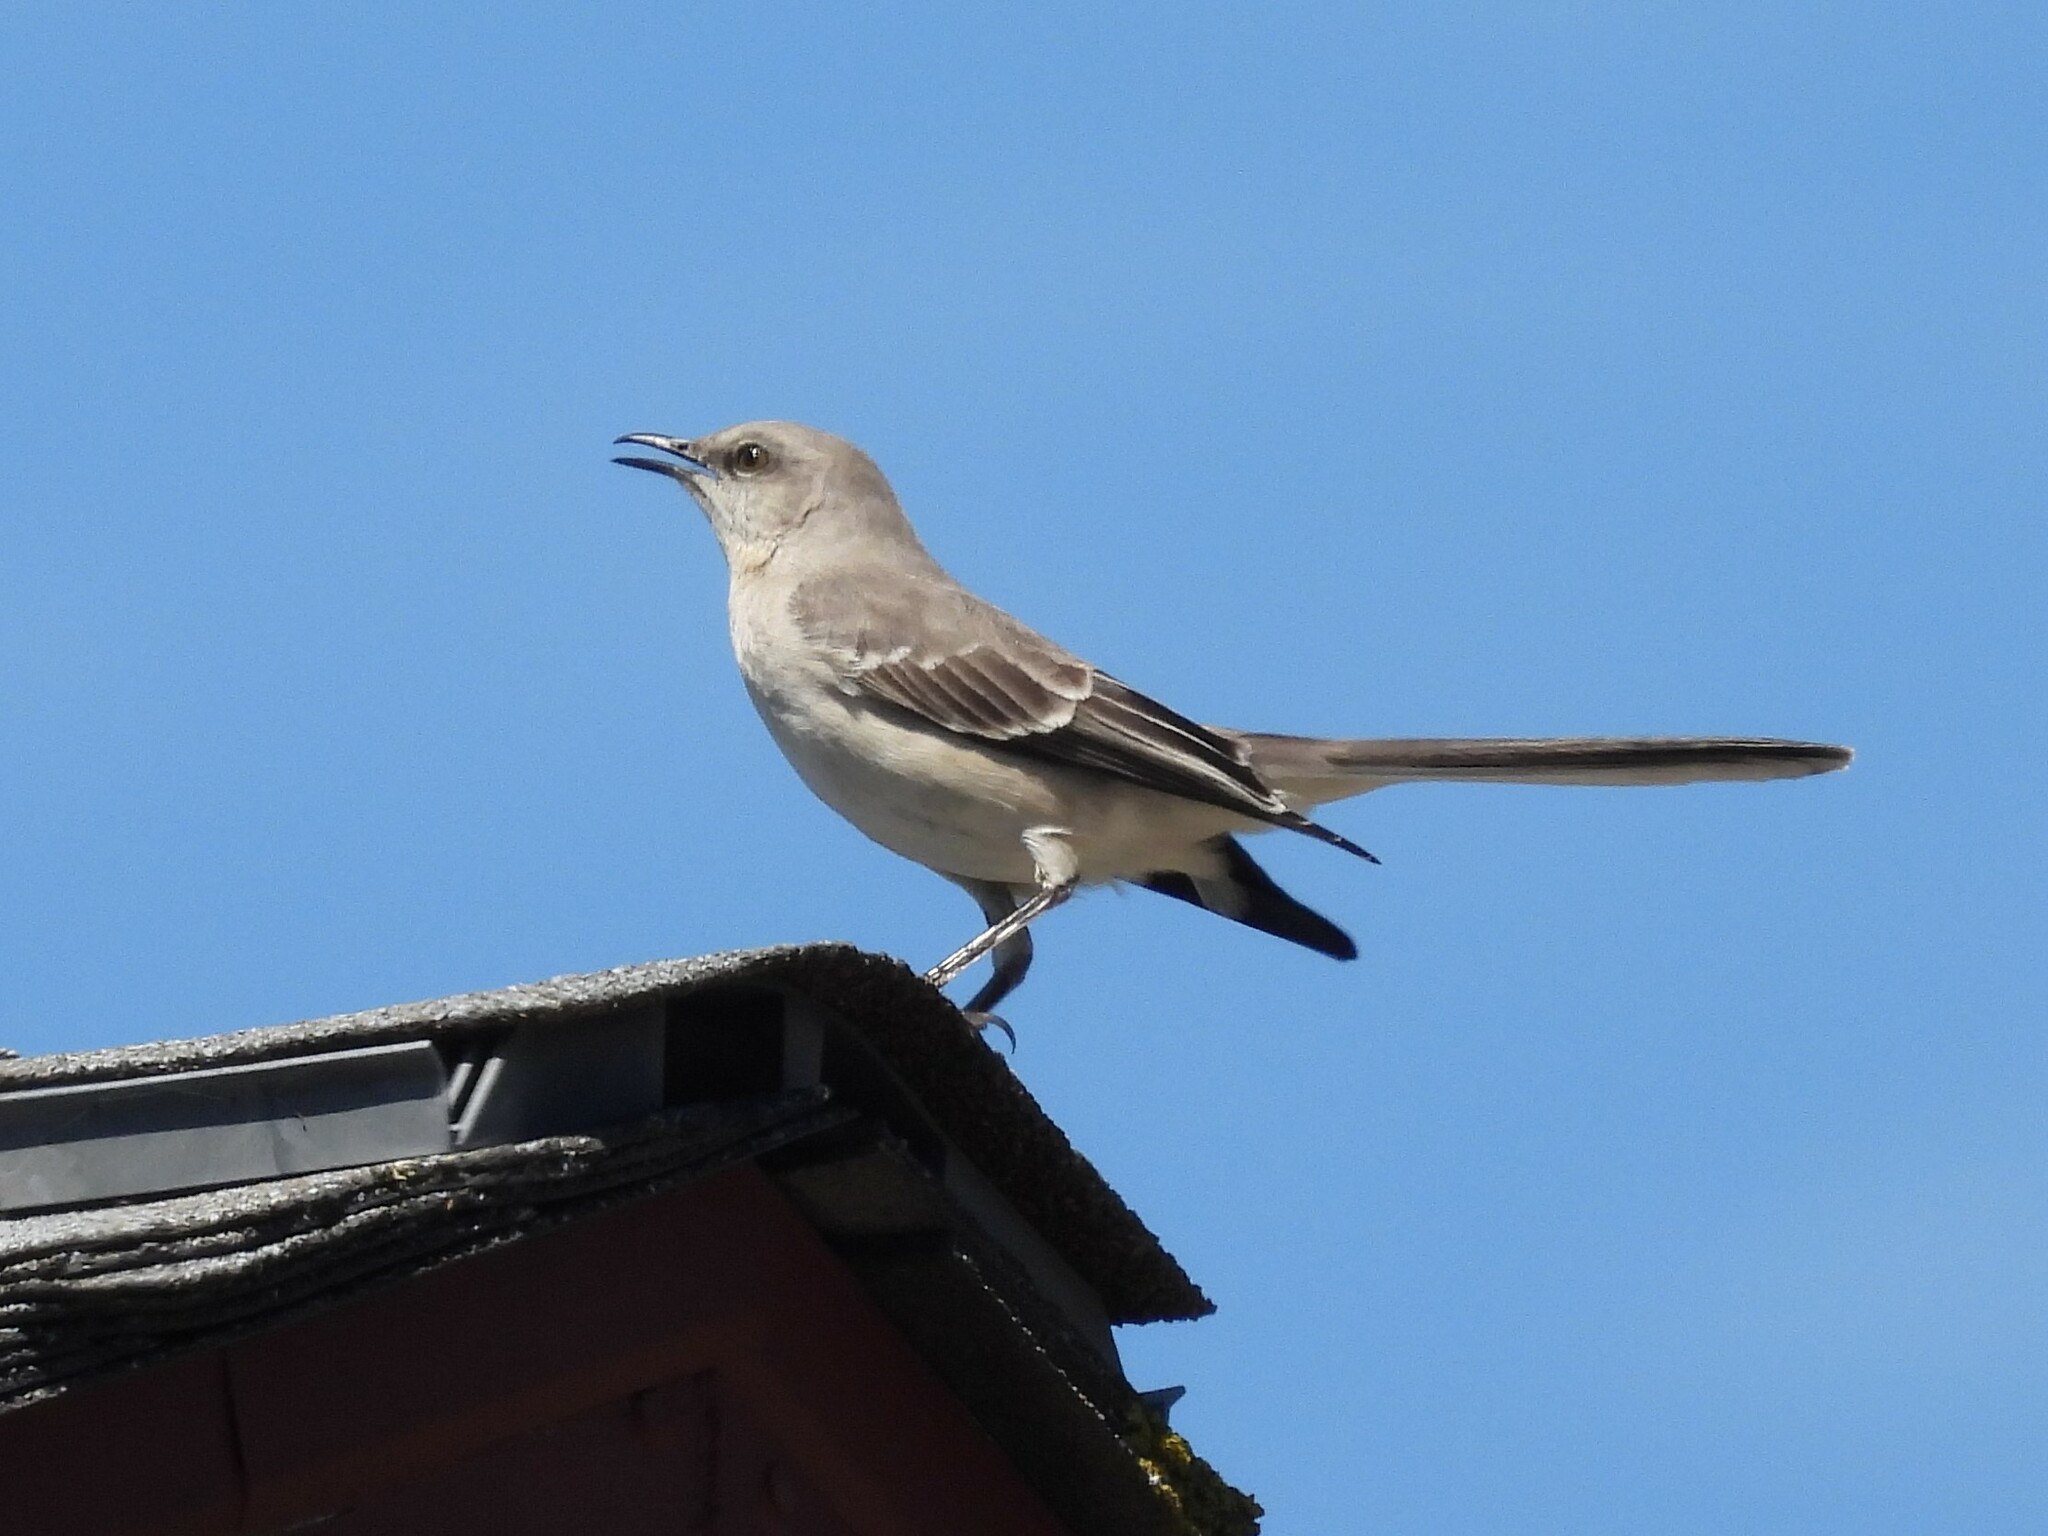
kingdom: Animalia
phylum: Chordata
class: Aves
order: Passeriformes
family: Mimidae
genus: Mimus
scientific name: Mimus polyglottos
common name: Northern mockingbird
